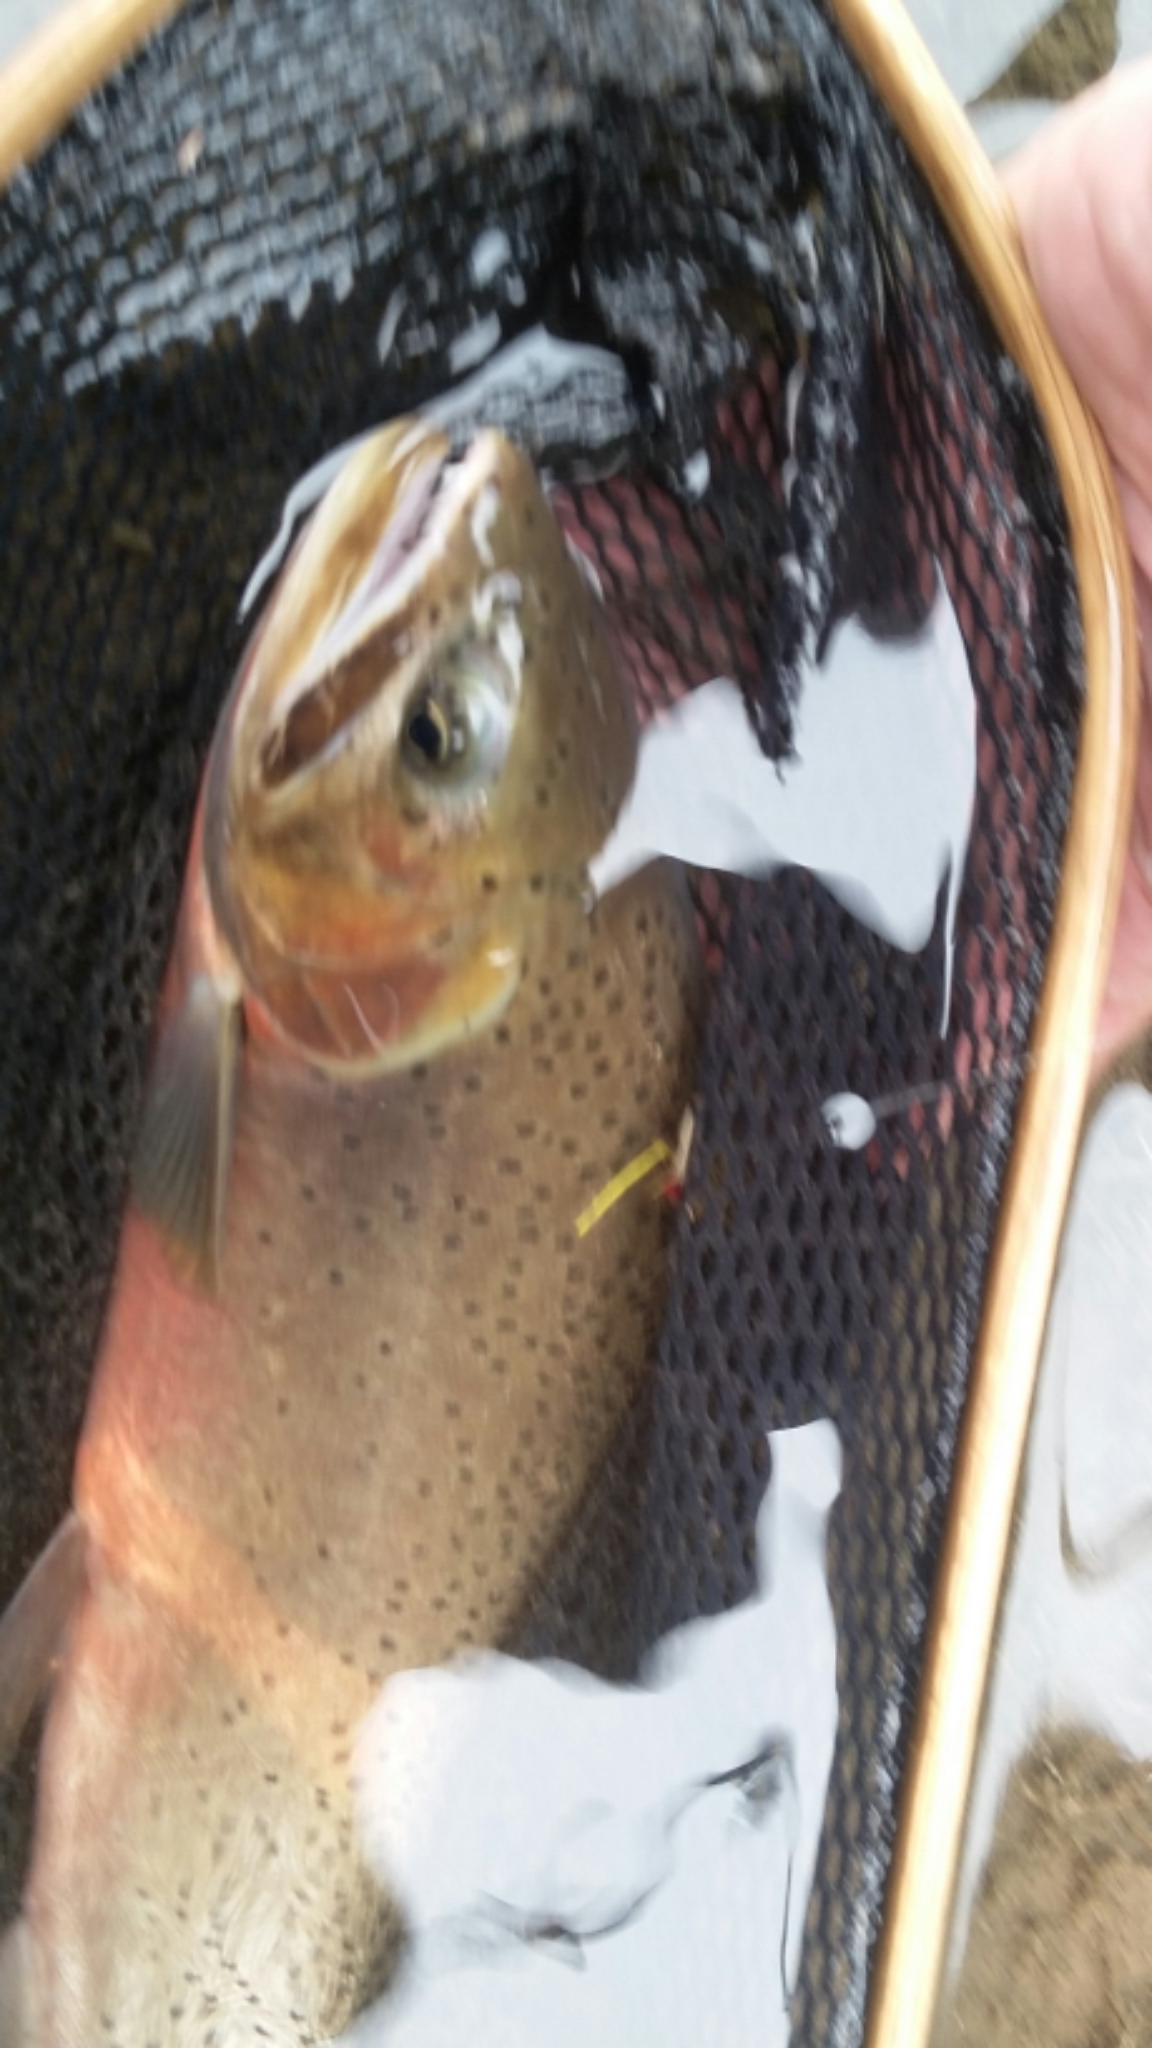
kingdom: Animalia
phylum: Chordata
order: Salmoniformes
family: Salmonidae
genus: Oncorhynchus
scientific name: Oncorhynchus
